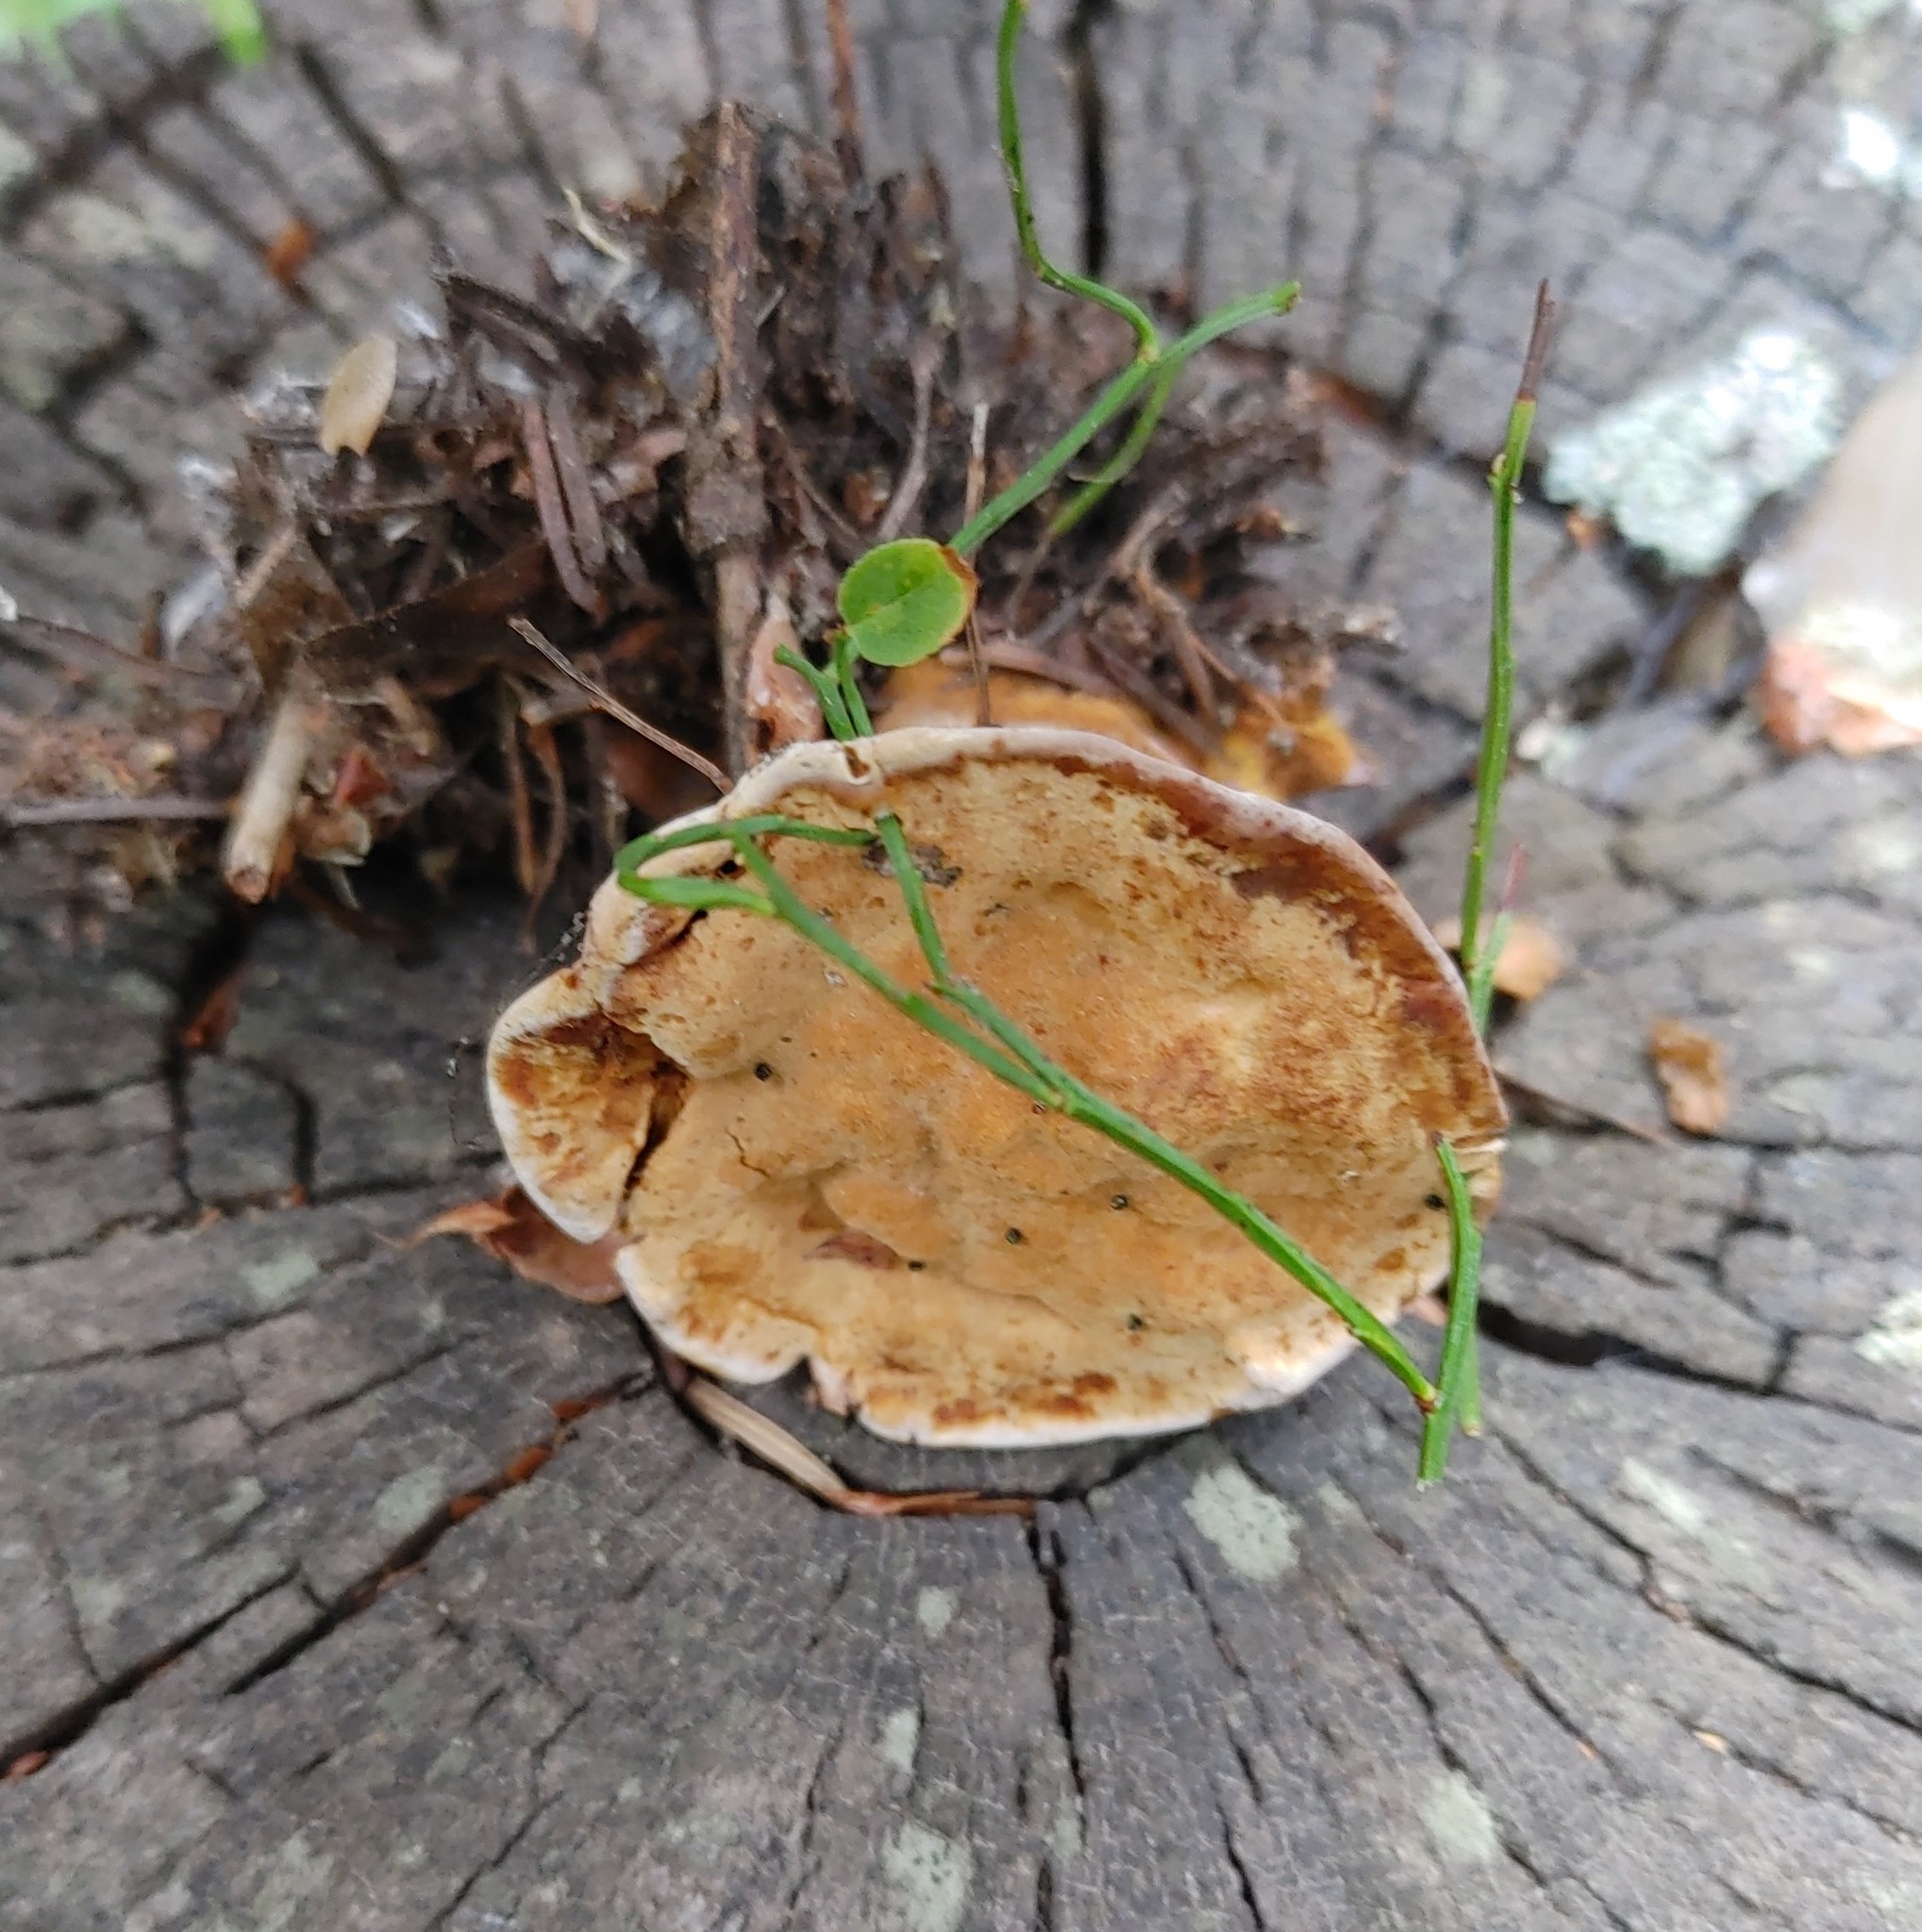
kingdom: Fungi
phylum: Basidiomycota
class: Agaricomycetes
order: Hymenochaetales
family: Hymenochaetaceae
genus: Onnia
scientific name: Onnia tomentosa
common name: Velvet rosette
